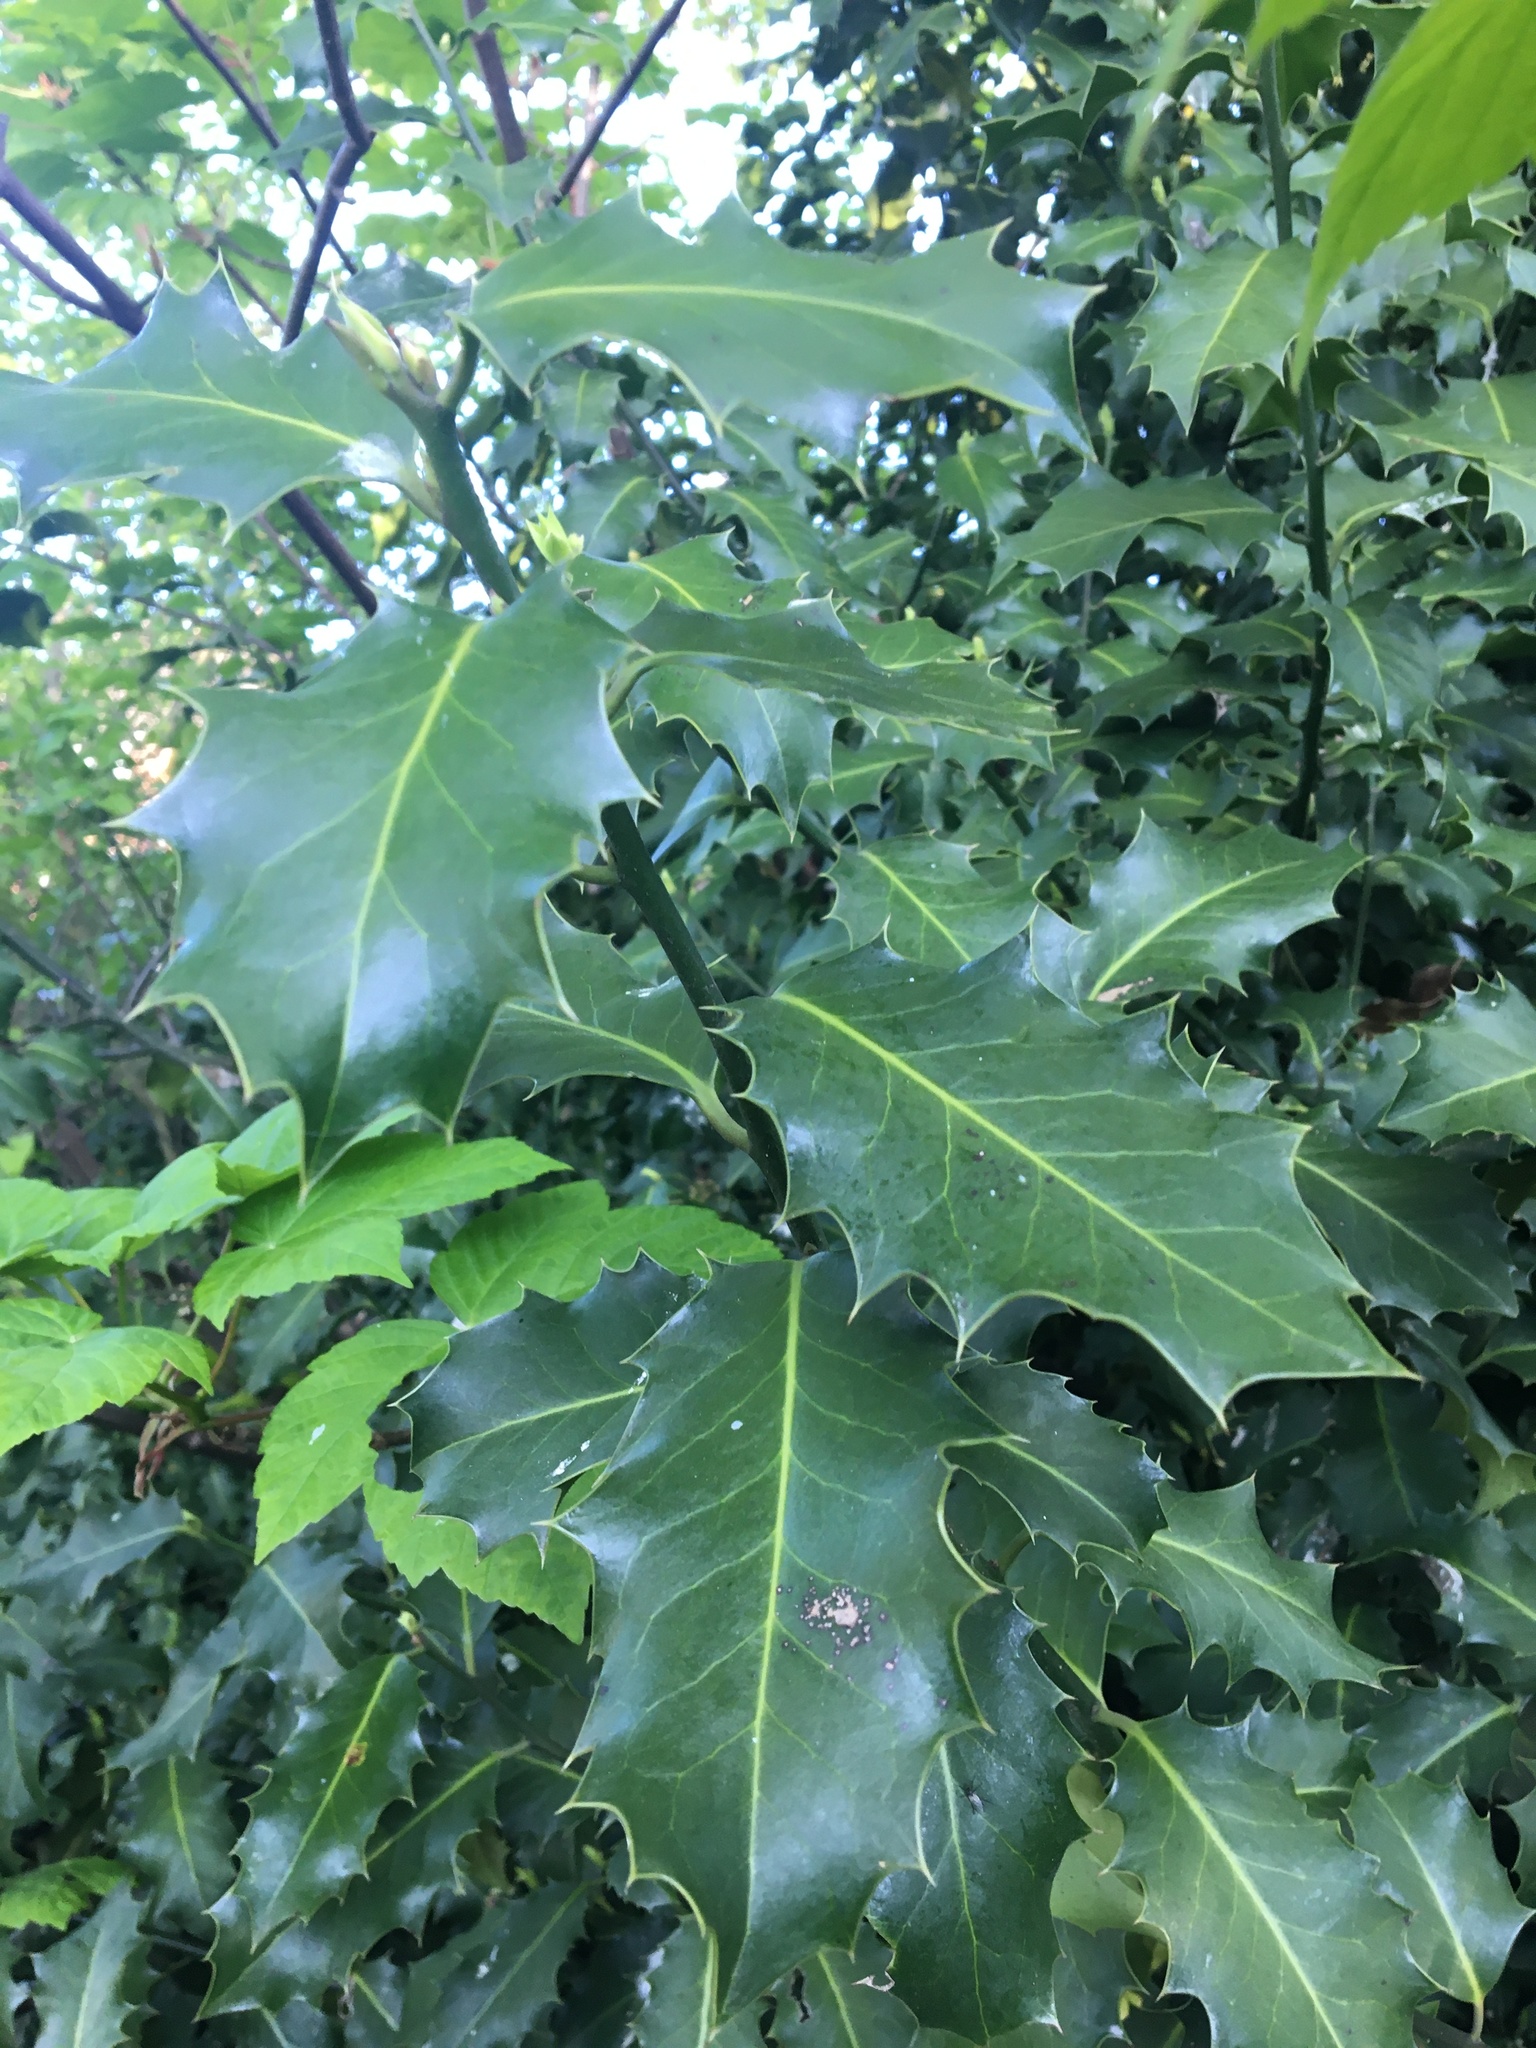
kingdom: Plantae
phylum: Tracheophyta
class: Magnoliopsida
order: Aquifoliales
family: Aquifoliaceae
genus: Ilex
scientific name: Ilex aquifolium
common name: English holly
